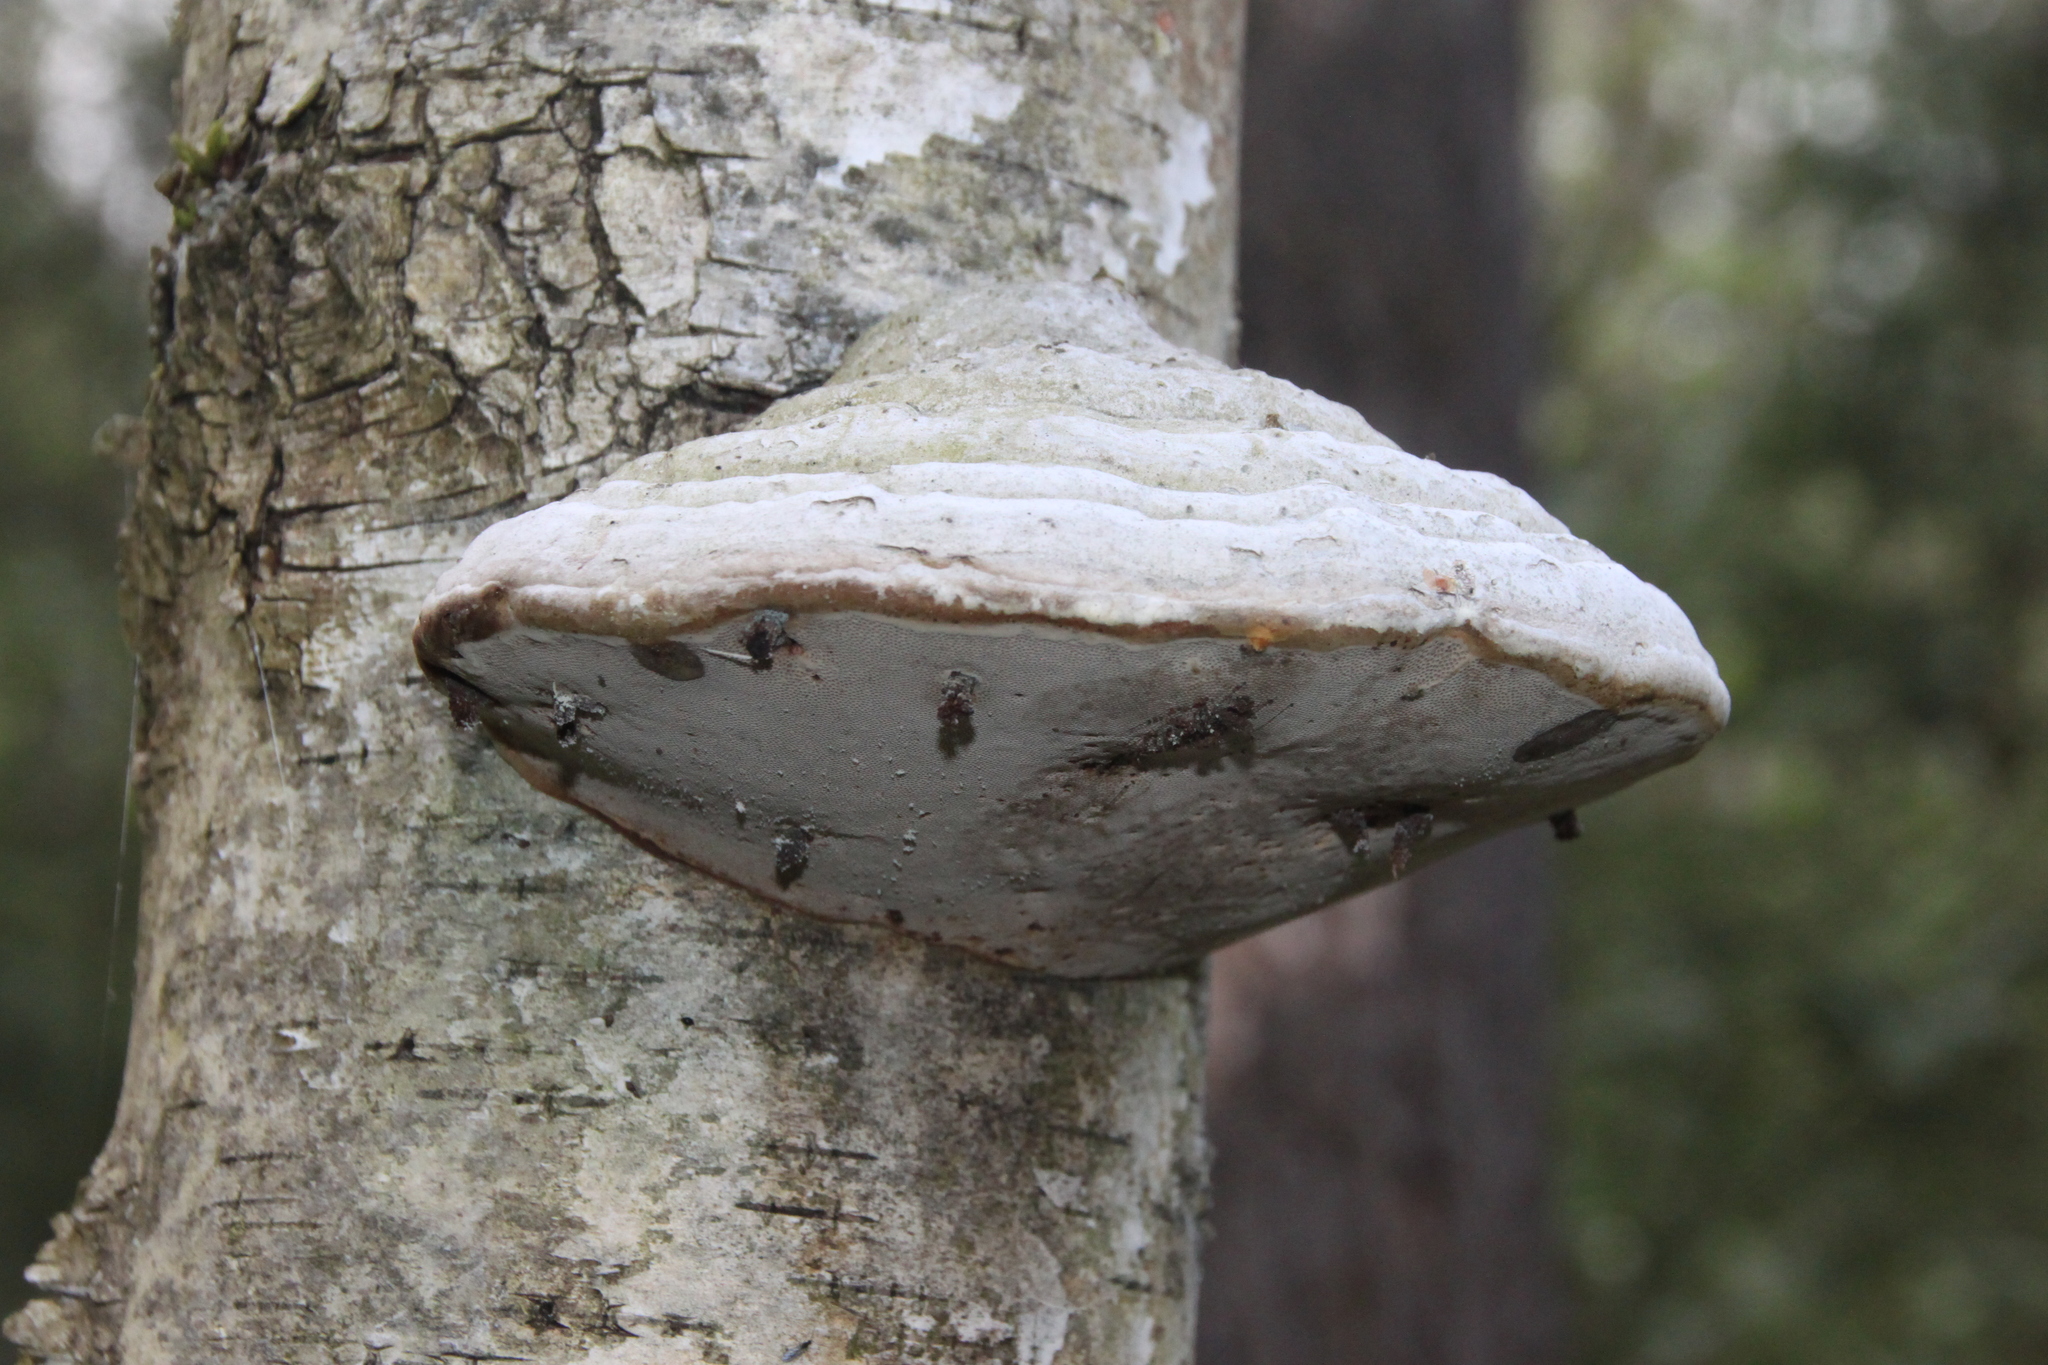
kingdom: Fungi
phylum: Basidiomycota
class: Agaricomycetes
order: Polyporales
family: Polyporaceae
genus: Fomes
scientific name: Fomes fomentarius
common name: Hoof fungus
